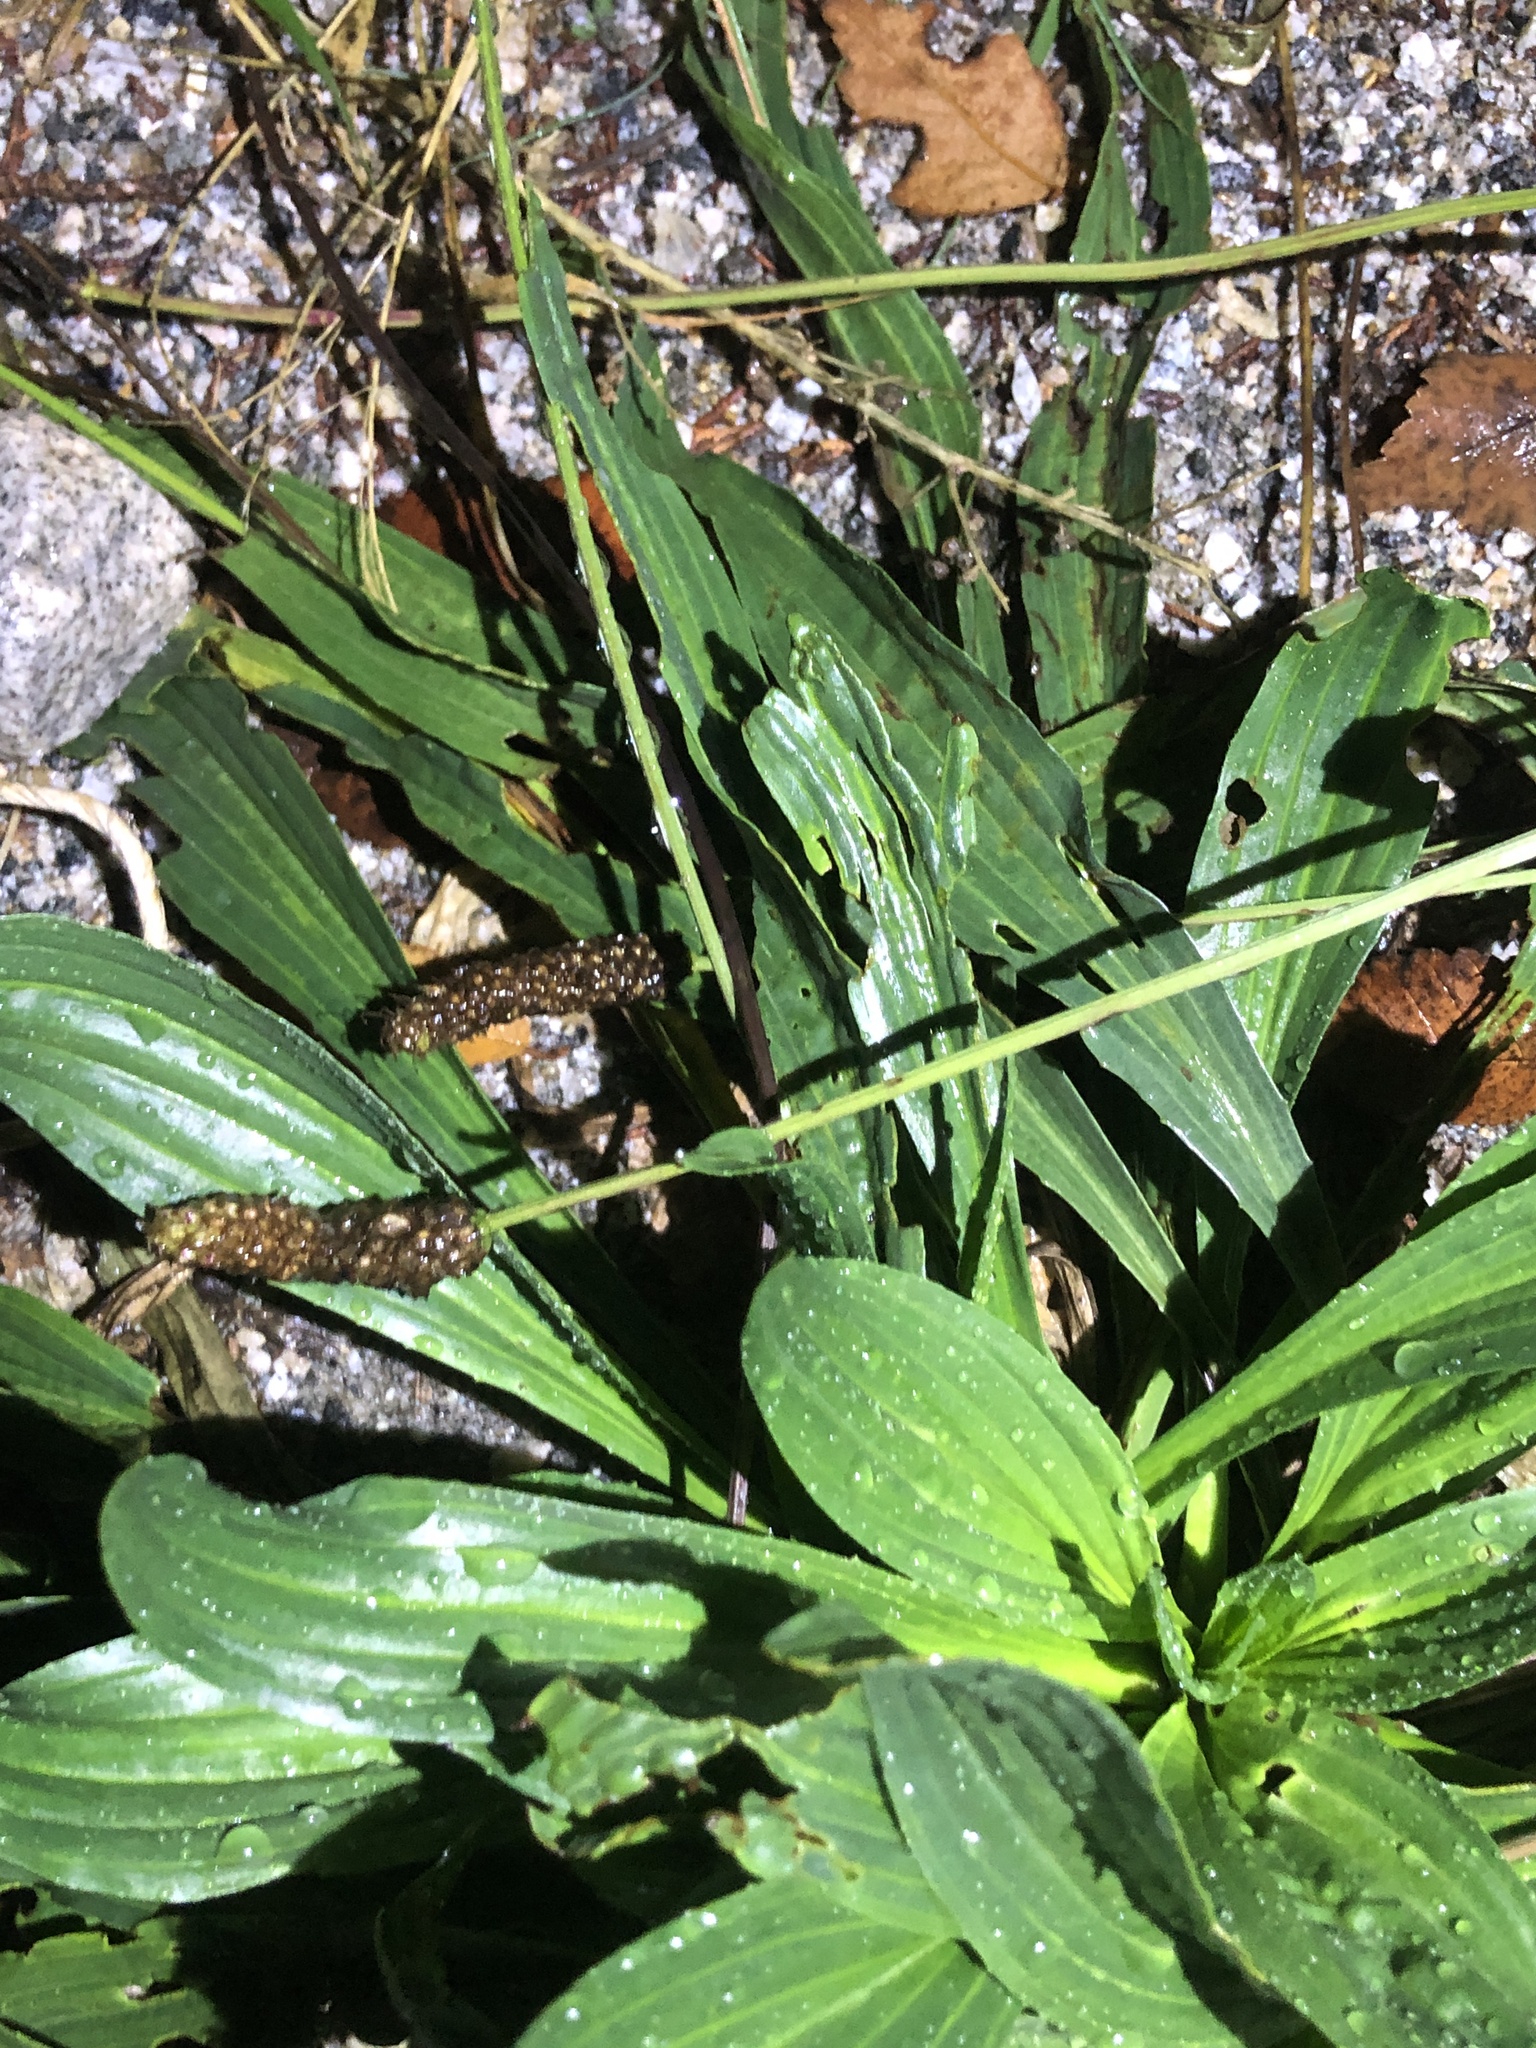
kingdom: Plantae
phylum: Tracheophyta
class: Magnoliopsida
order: Lamiales
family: Plantaginaceae
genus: Plantago
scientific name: Plantago lanceolata
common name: Ribwort plantain
